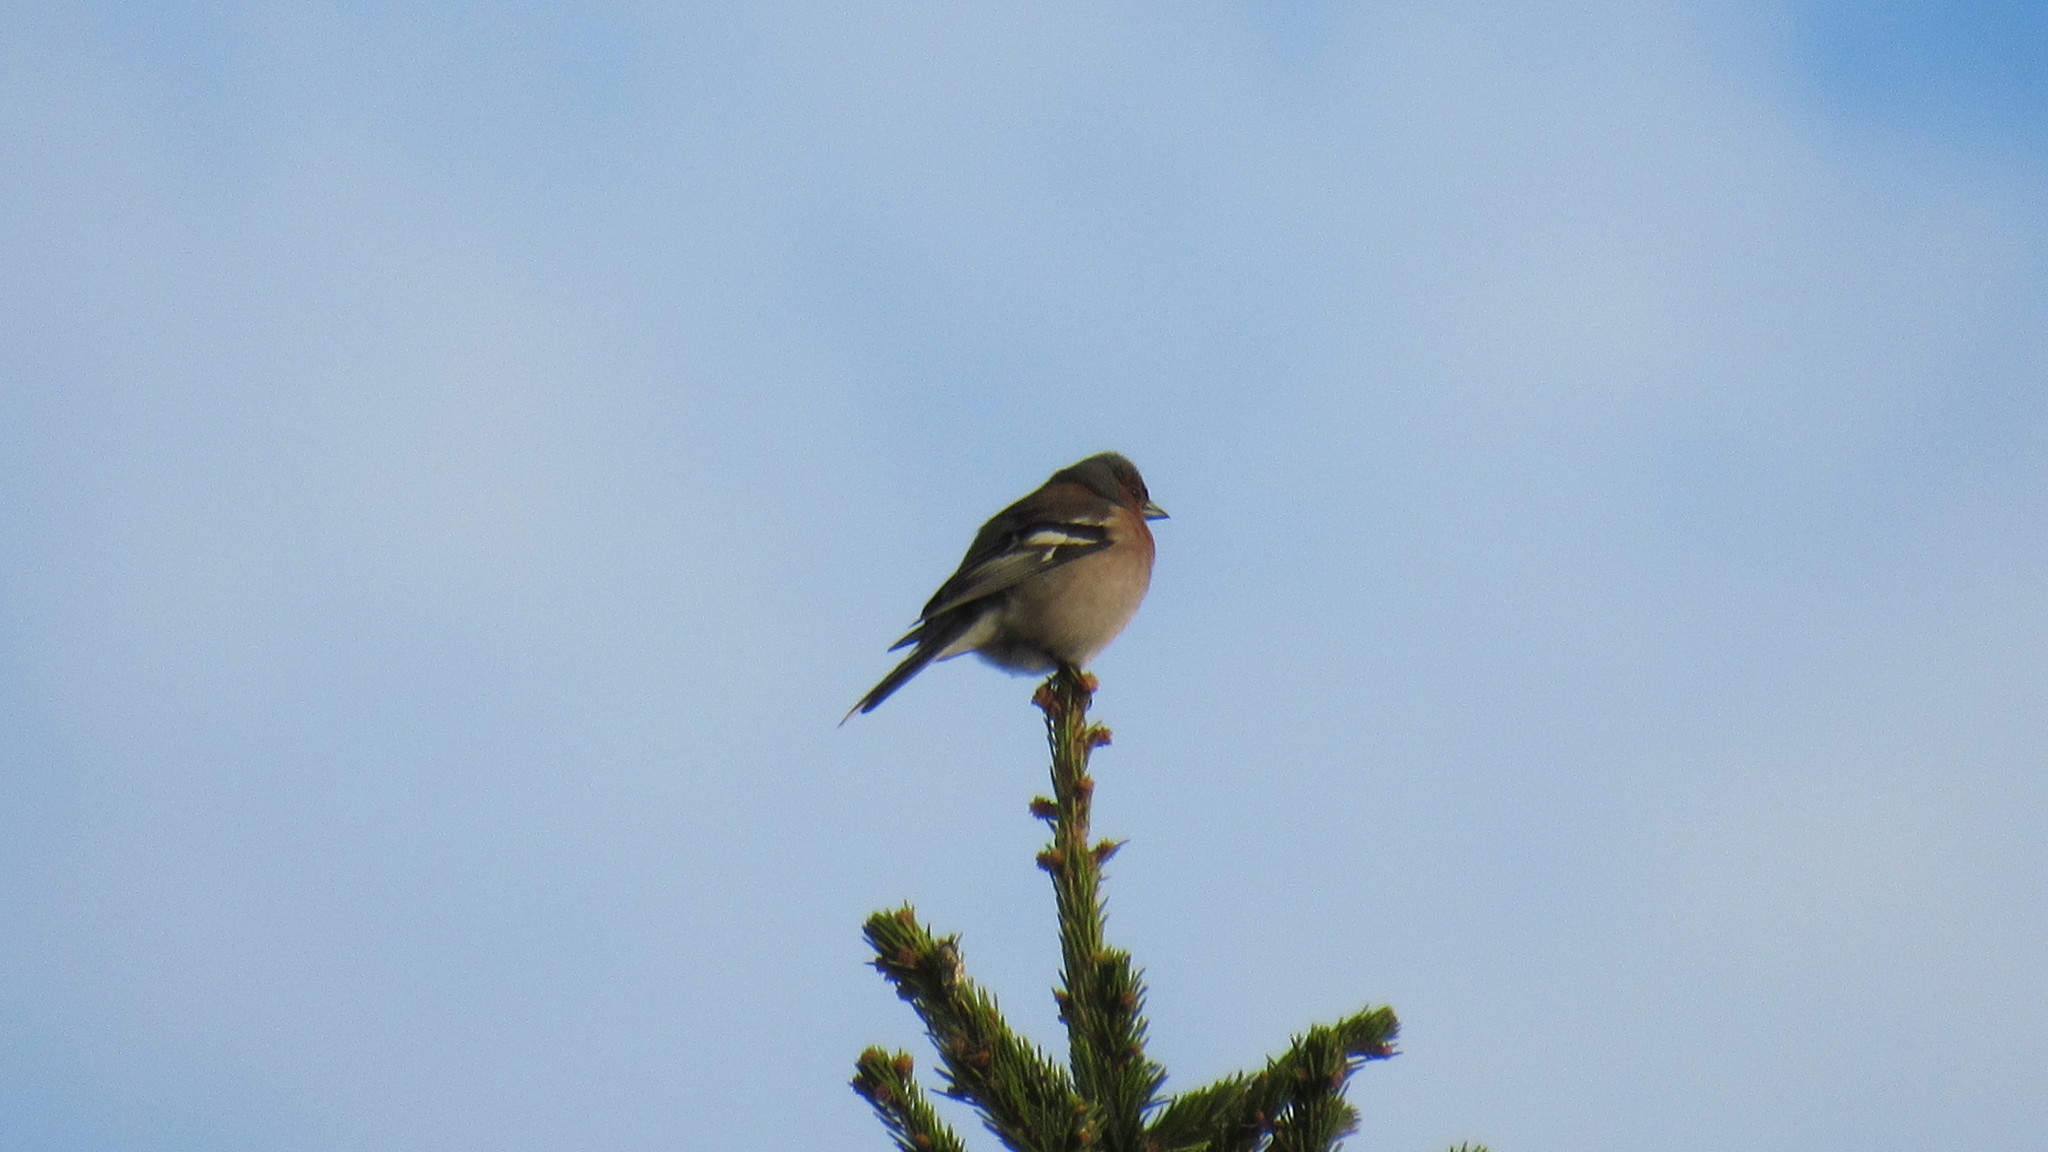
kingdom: Animalia
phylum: Chordata
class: Aves
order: Passeriformes
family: Fringillidae
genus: Fringilla
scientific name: Fringilla coelebs
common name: Common chaffinch
